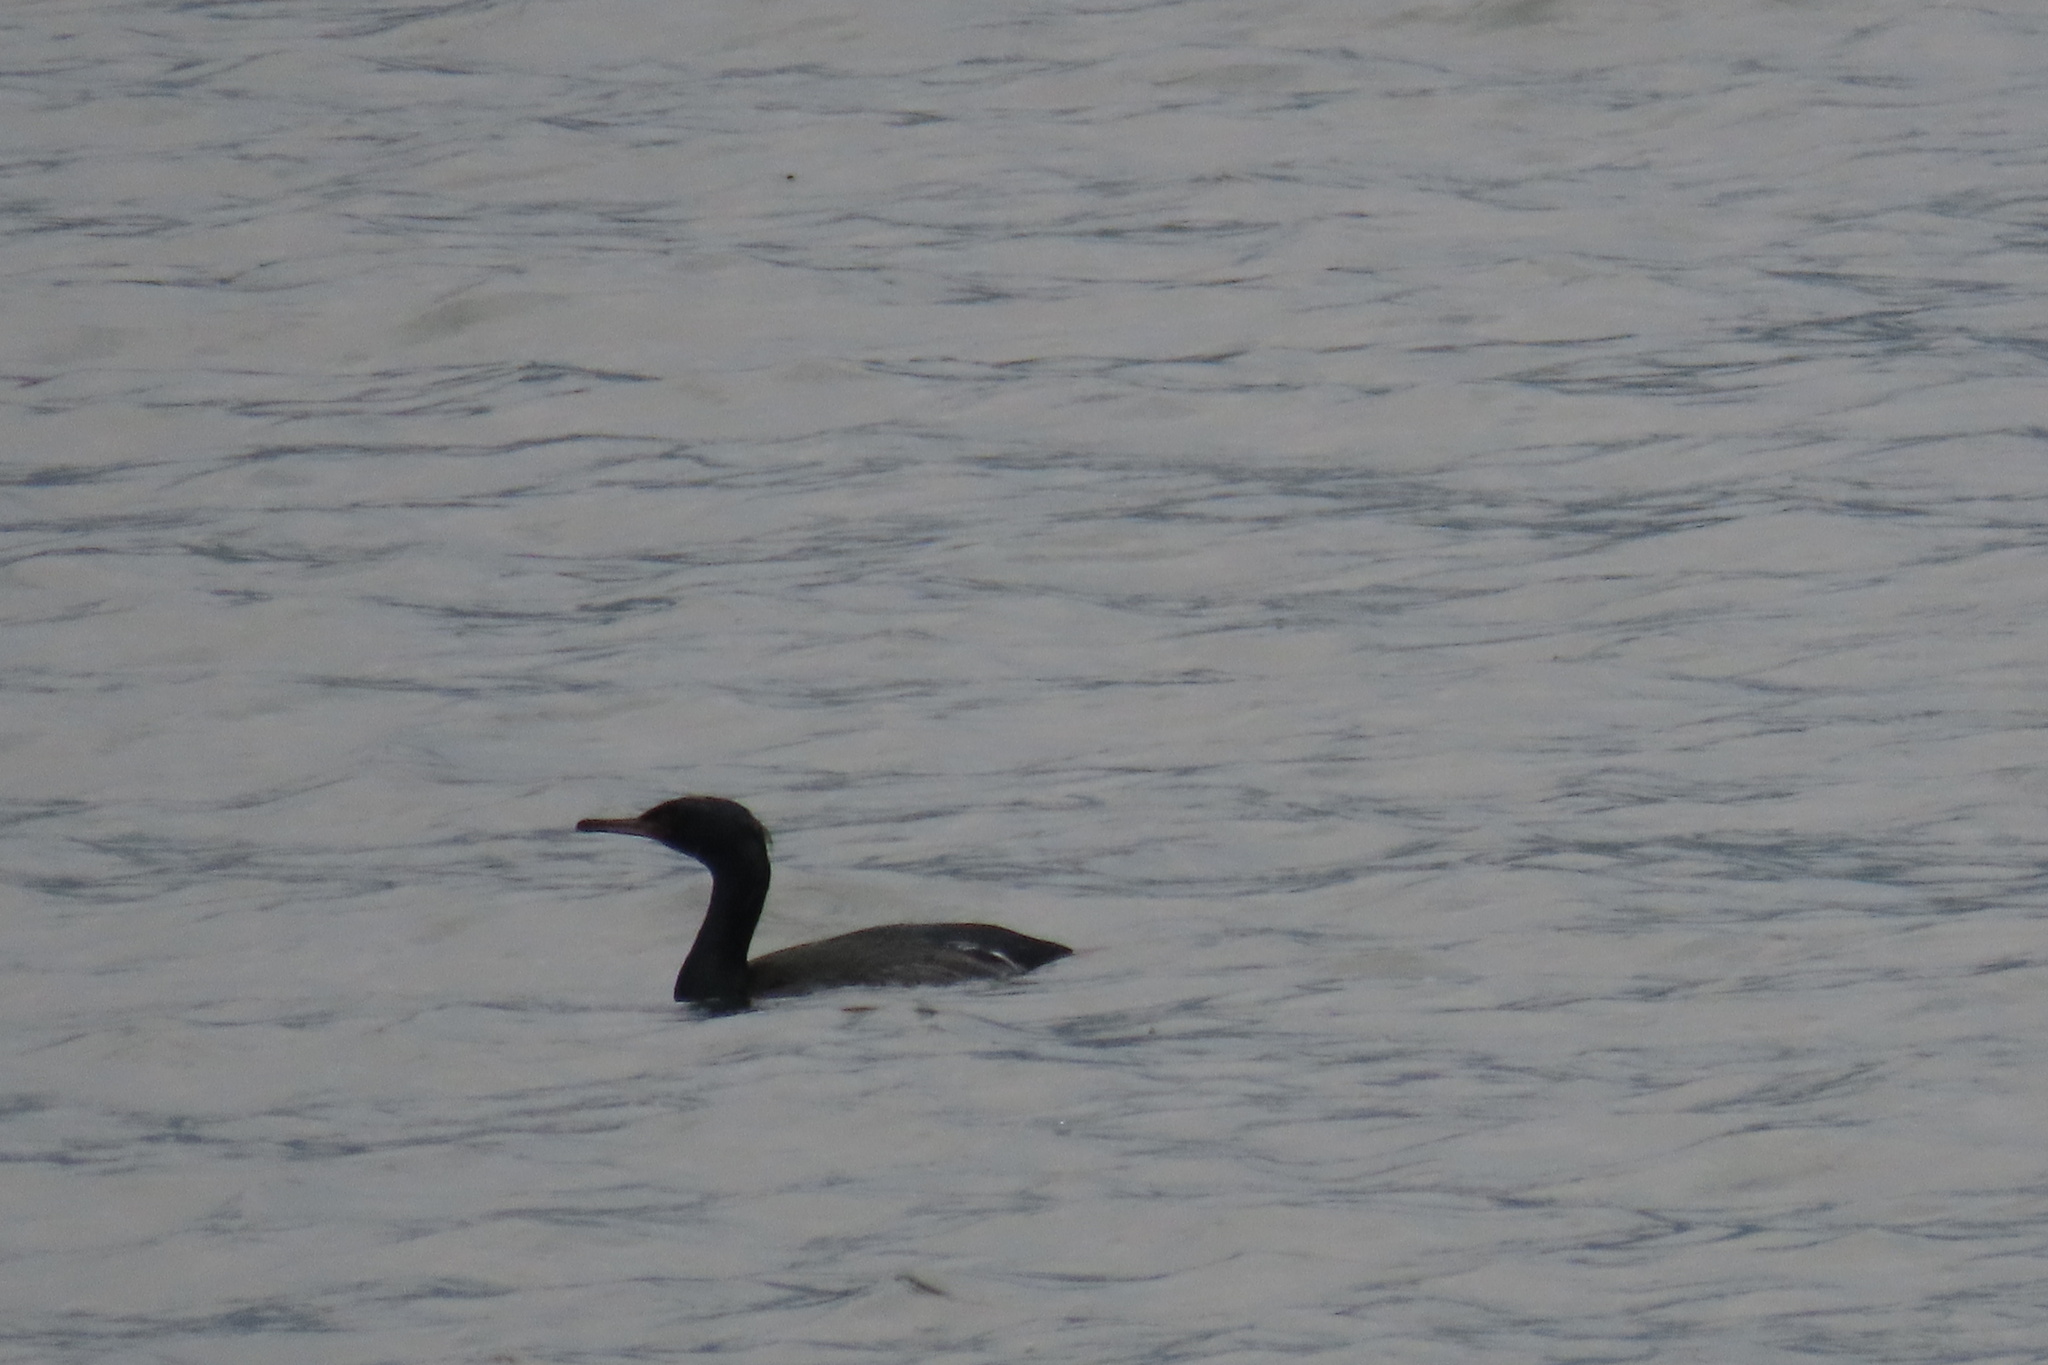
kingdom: Animalia
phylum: Chordata
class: Aves
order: Suliformes
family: Phalacrocoracidae
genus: Phalacrocorax
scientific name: Phalacrocorax pelagicus
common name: Pelagic cormorant
